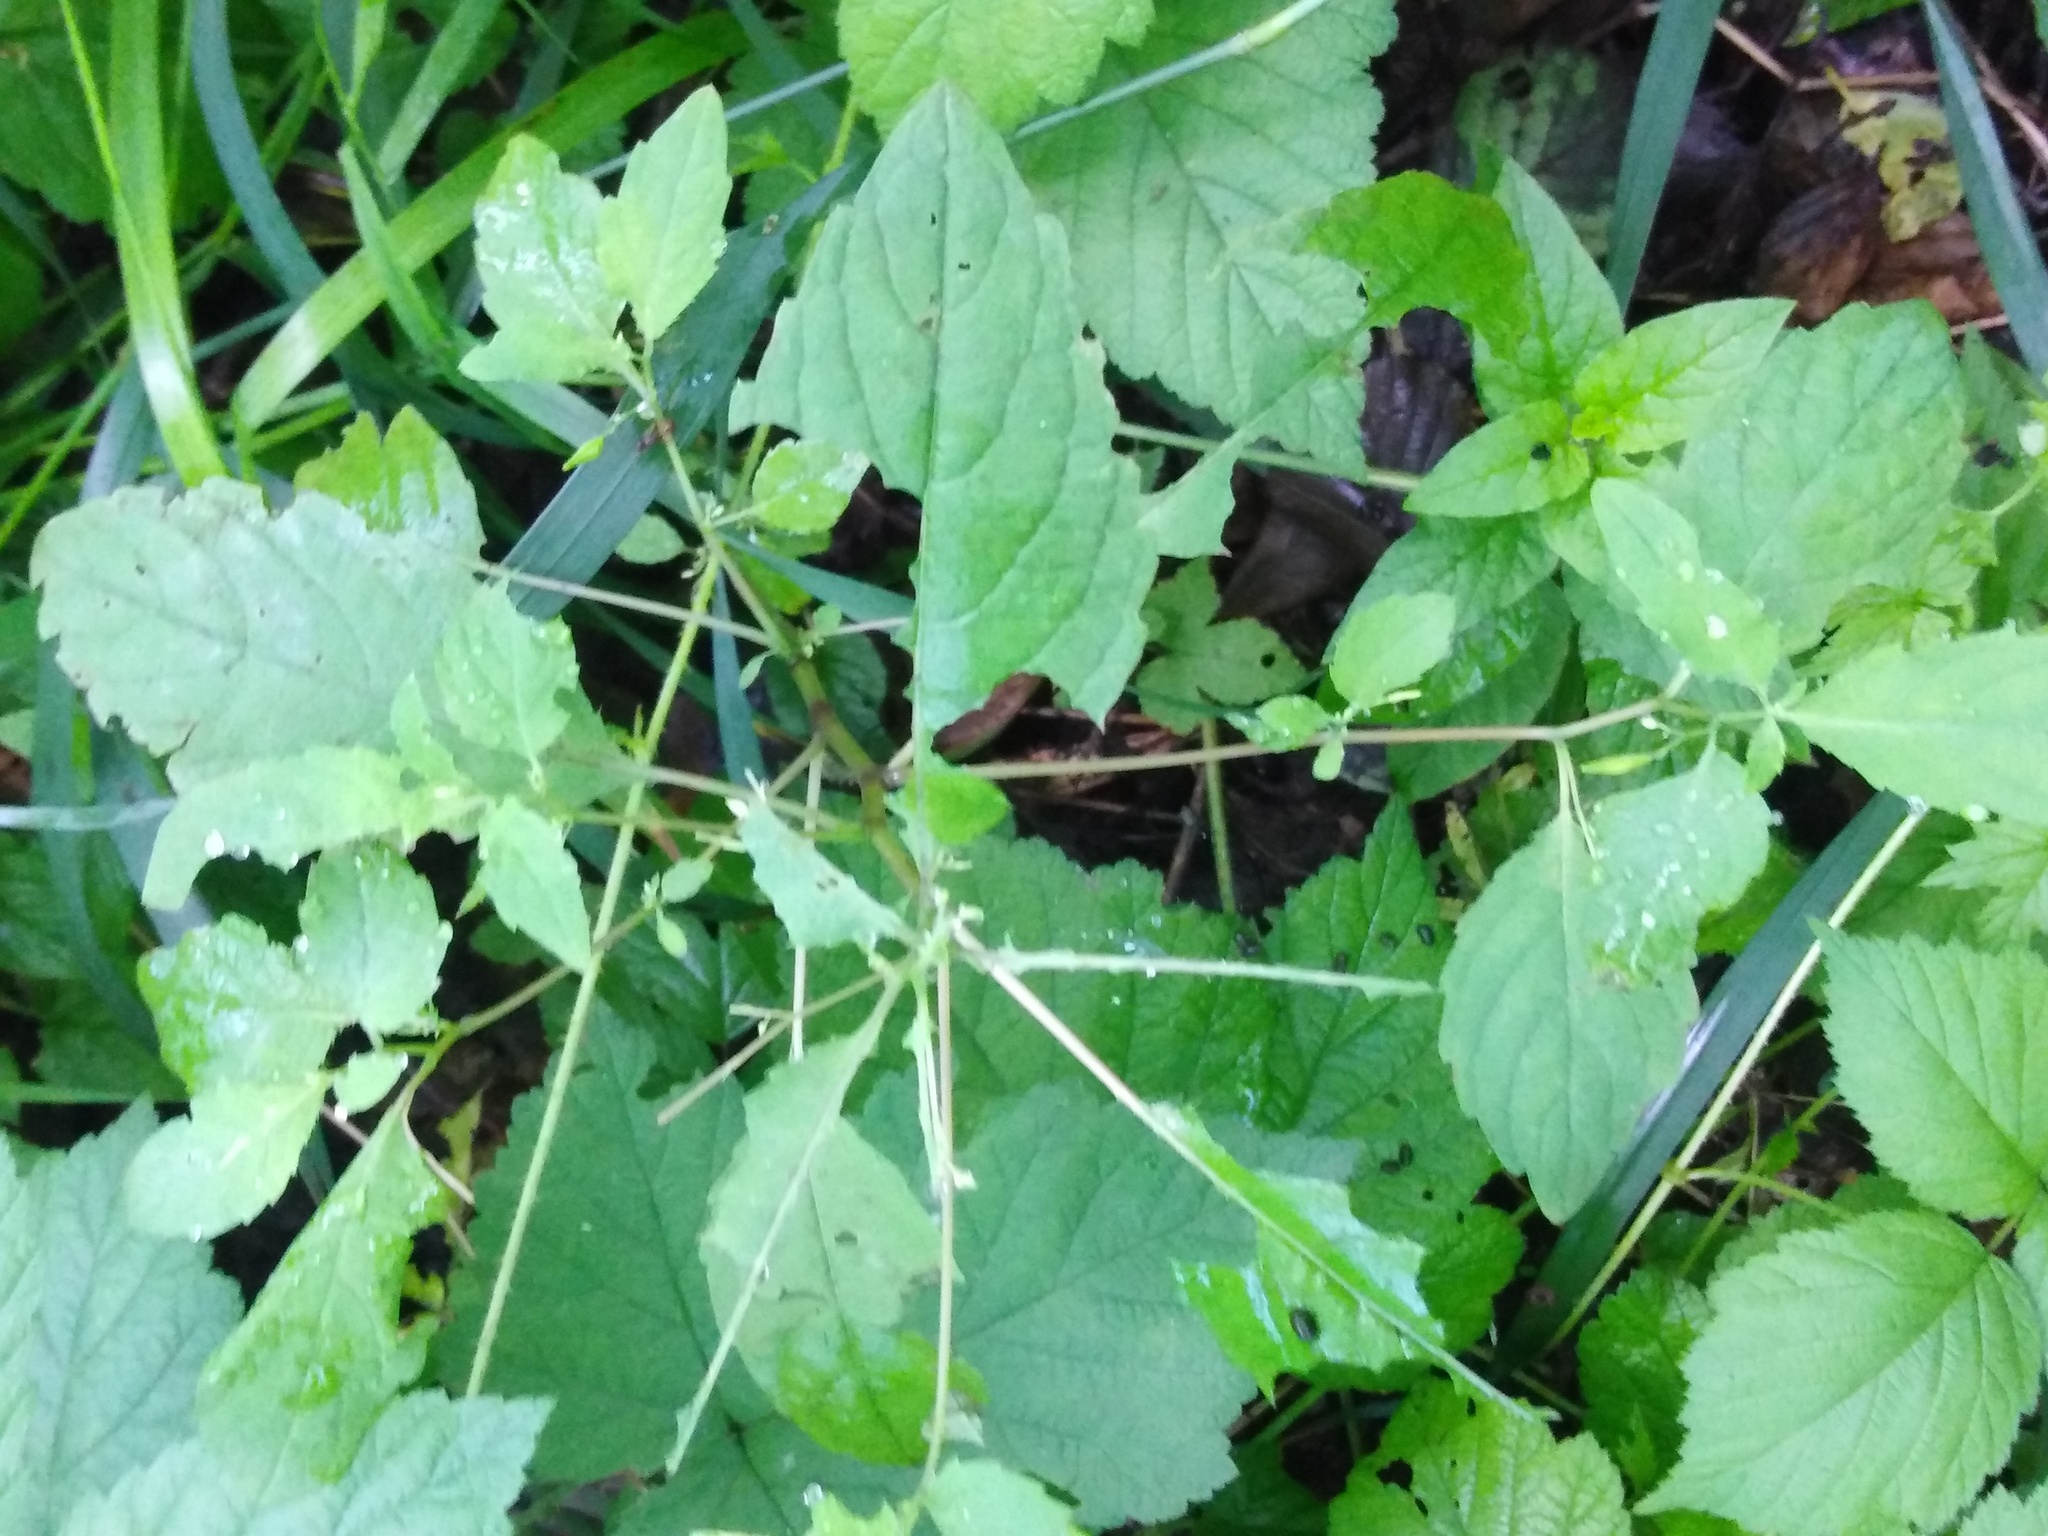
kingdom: Plantae
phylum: Tracheophyta
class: Magnoliopsida
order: Ericales
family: Balsaminaceae
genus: Impatiens
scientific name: Impatiens noli-tangere
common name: Touch-me-not balsam
